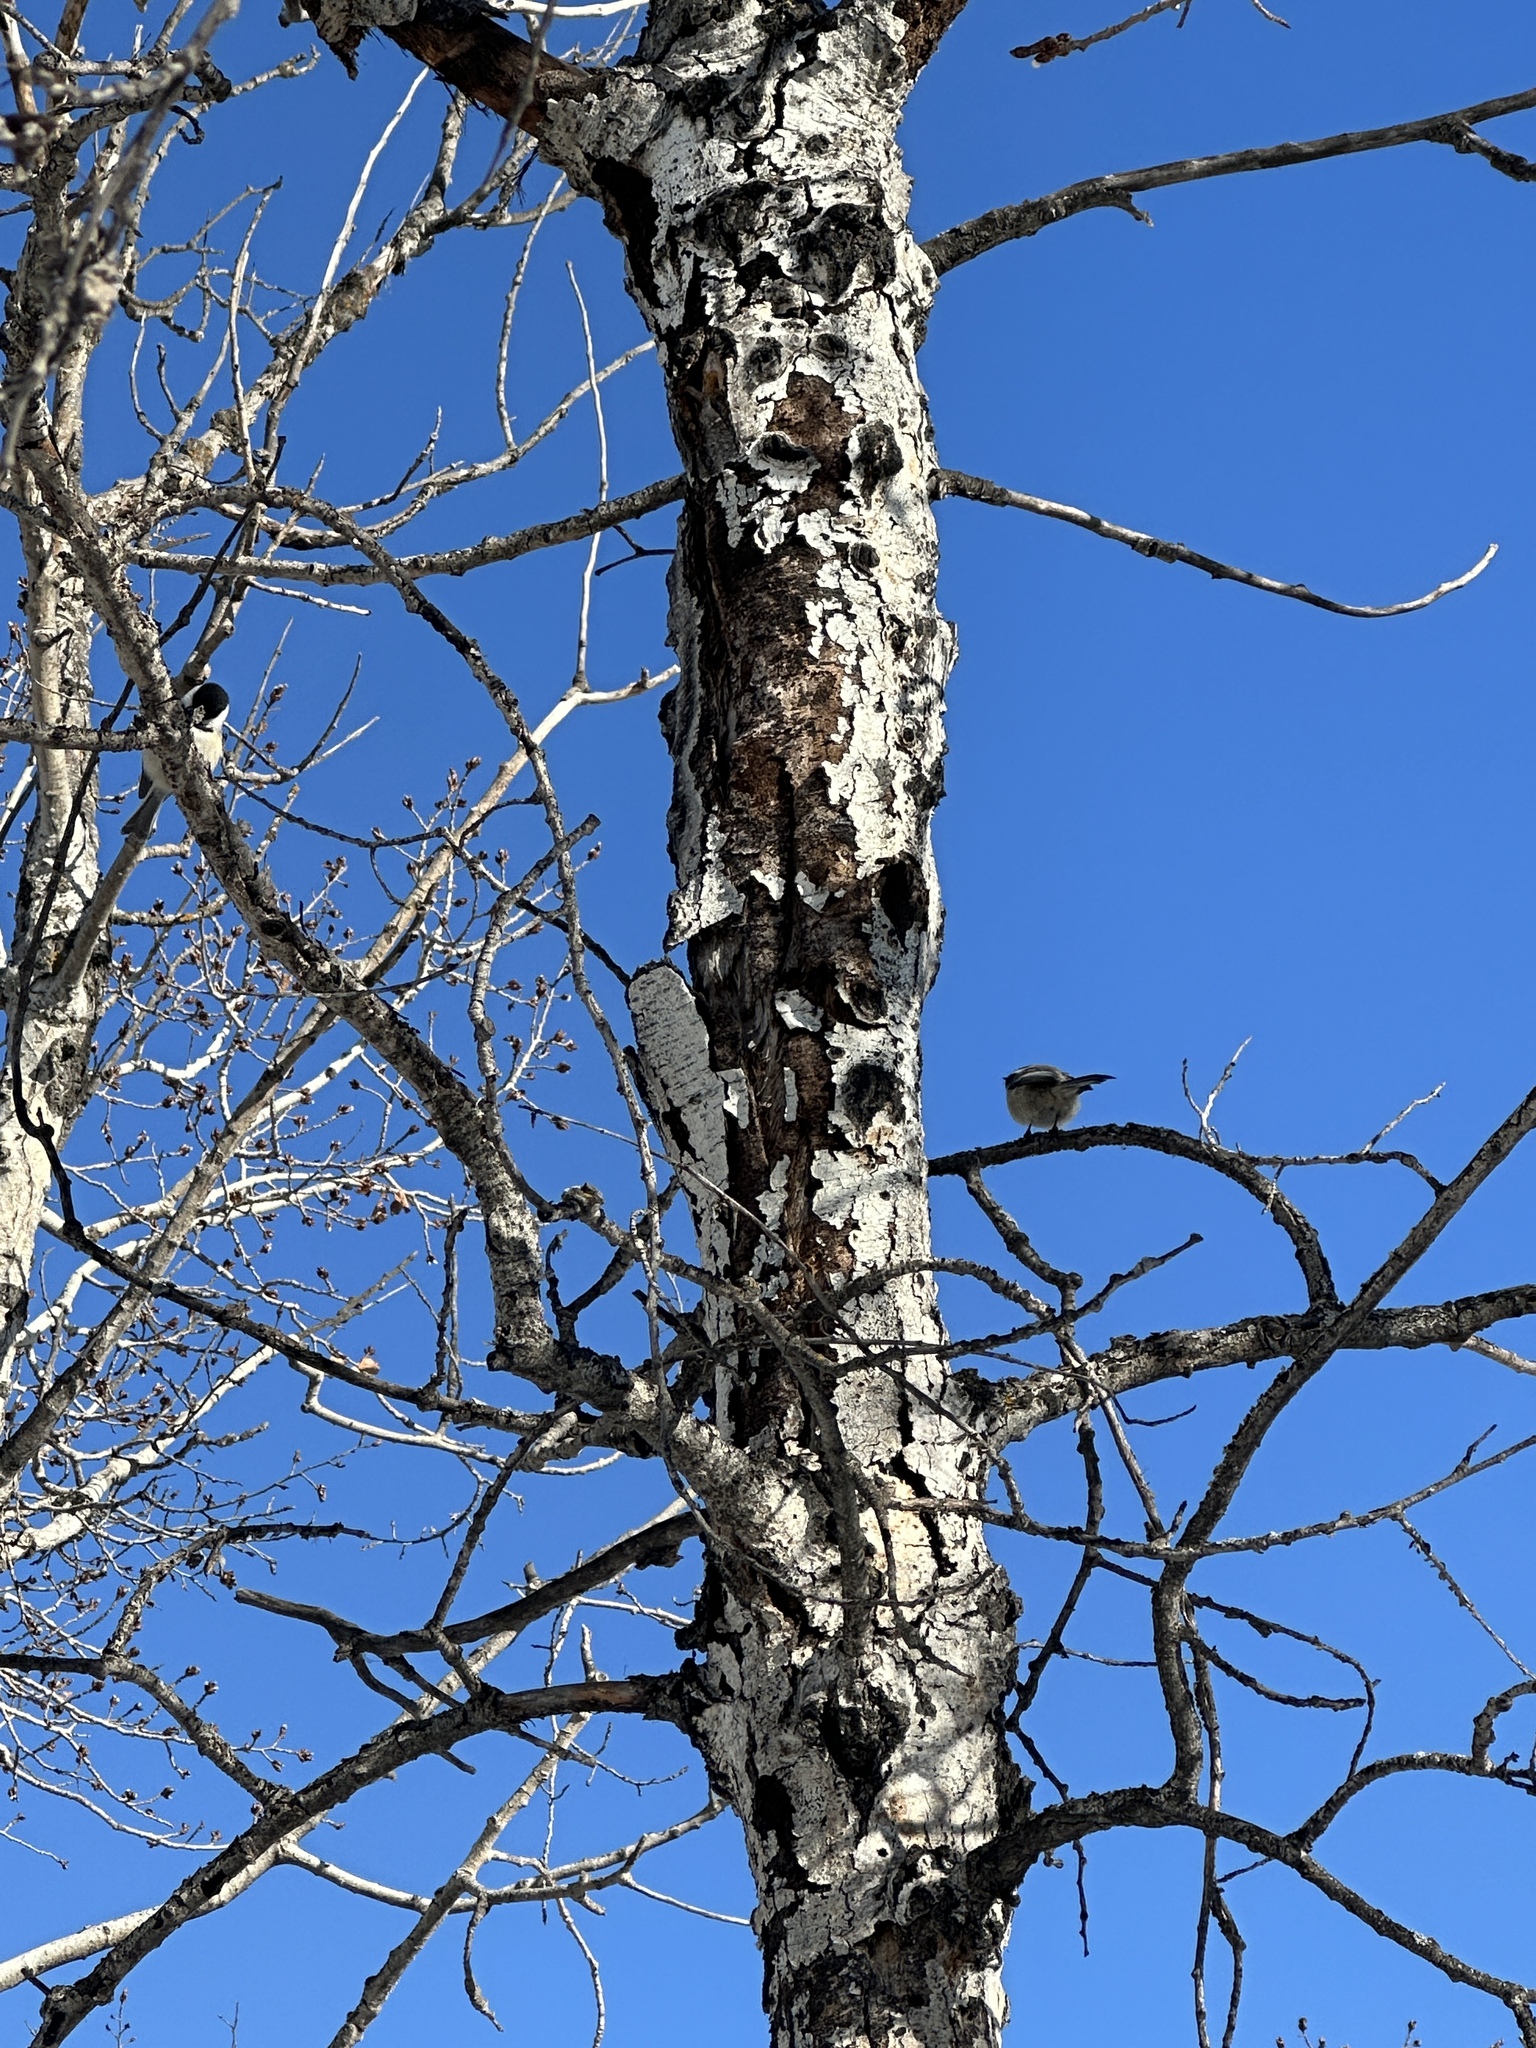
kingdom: Animalia
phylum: Chordata
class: Aves
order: Passeriformes
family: Paridae
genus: Poecile
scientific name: Poecile atricapillus
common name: Black-capped chickadee
